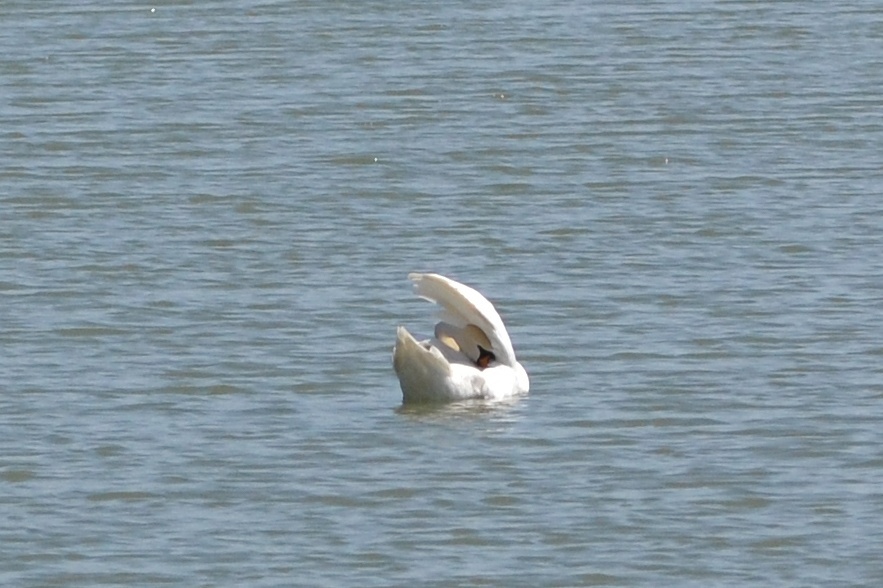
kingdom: Animalia
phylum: Chordata
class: Aves
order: Anseriformes
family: Anatidae
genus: Cygnus
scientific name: Cygnus olor
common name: Mute swan
